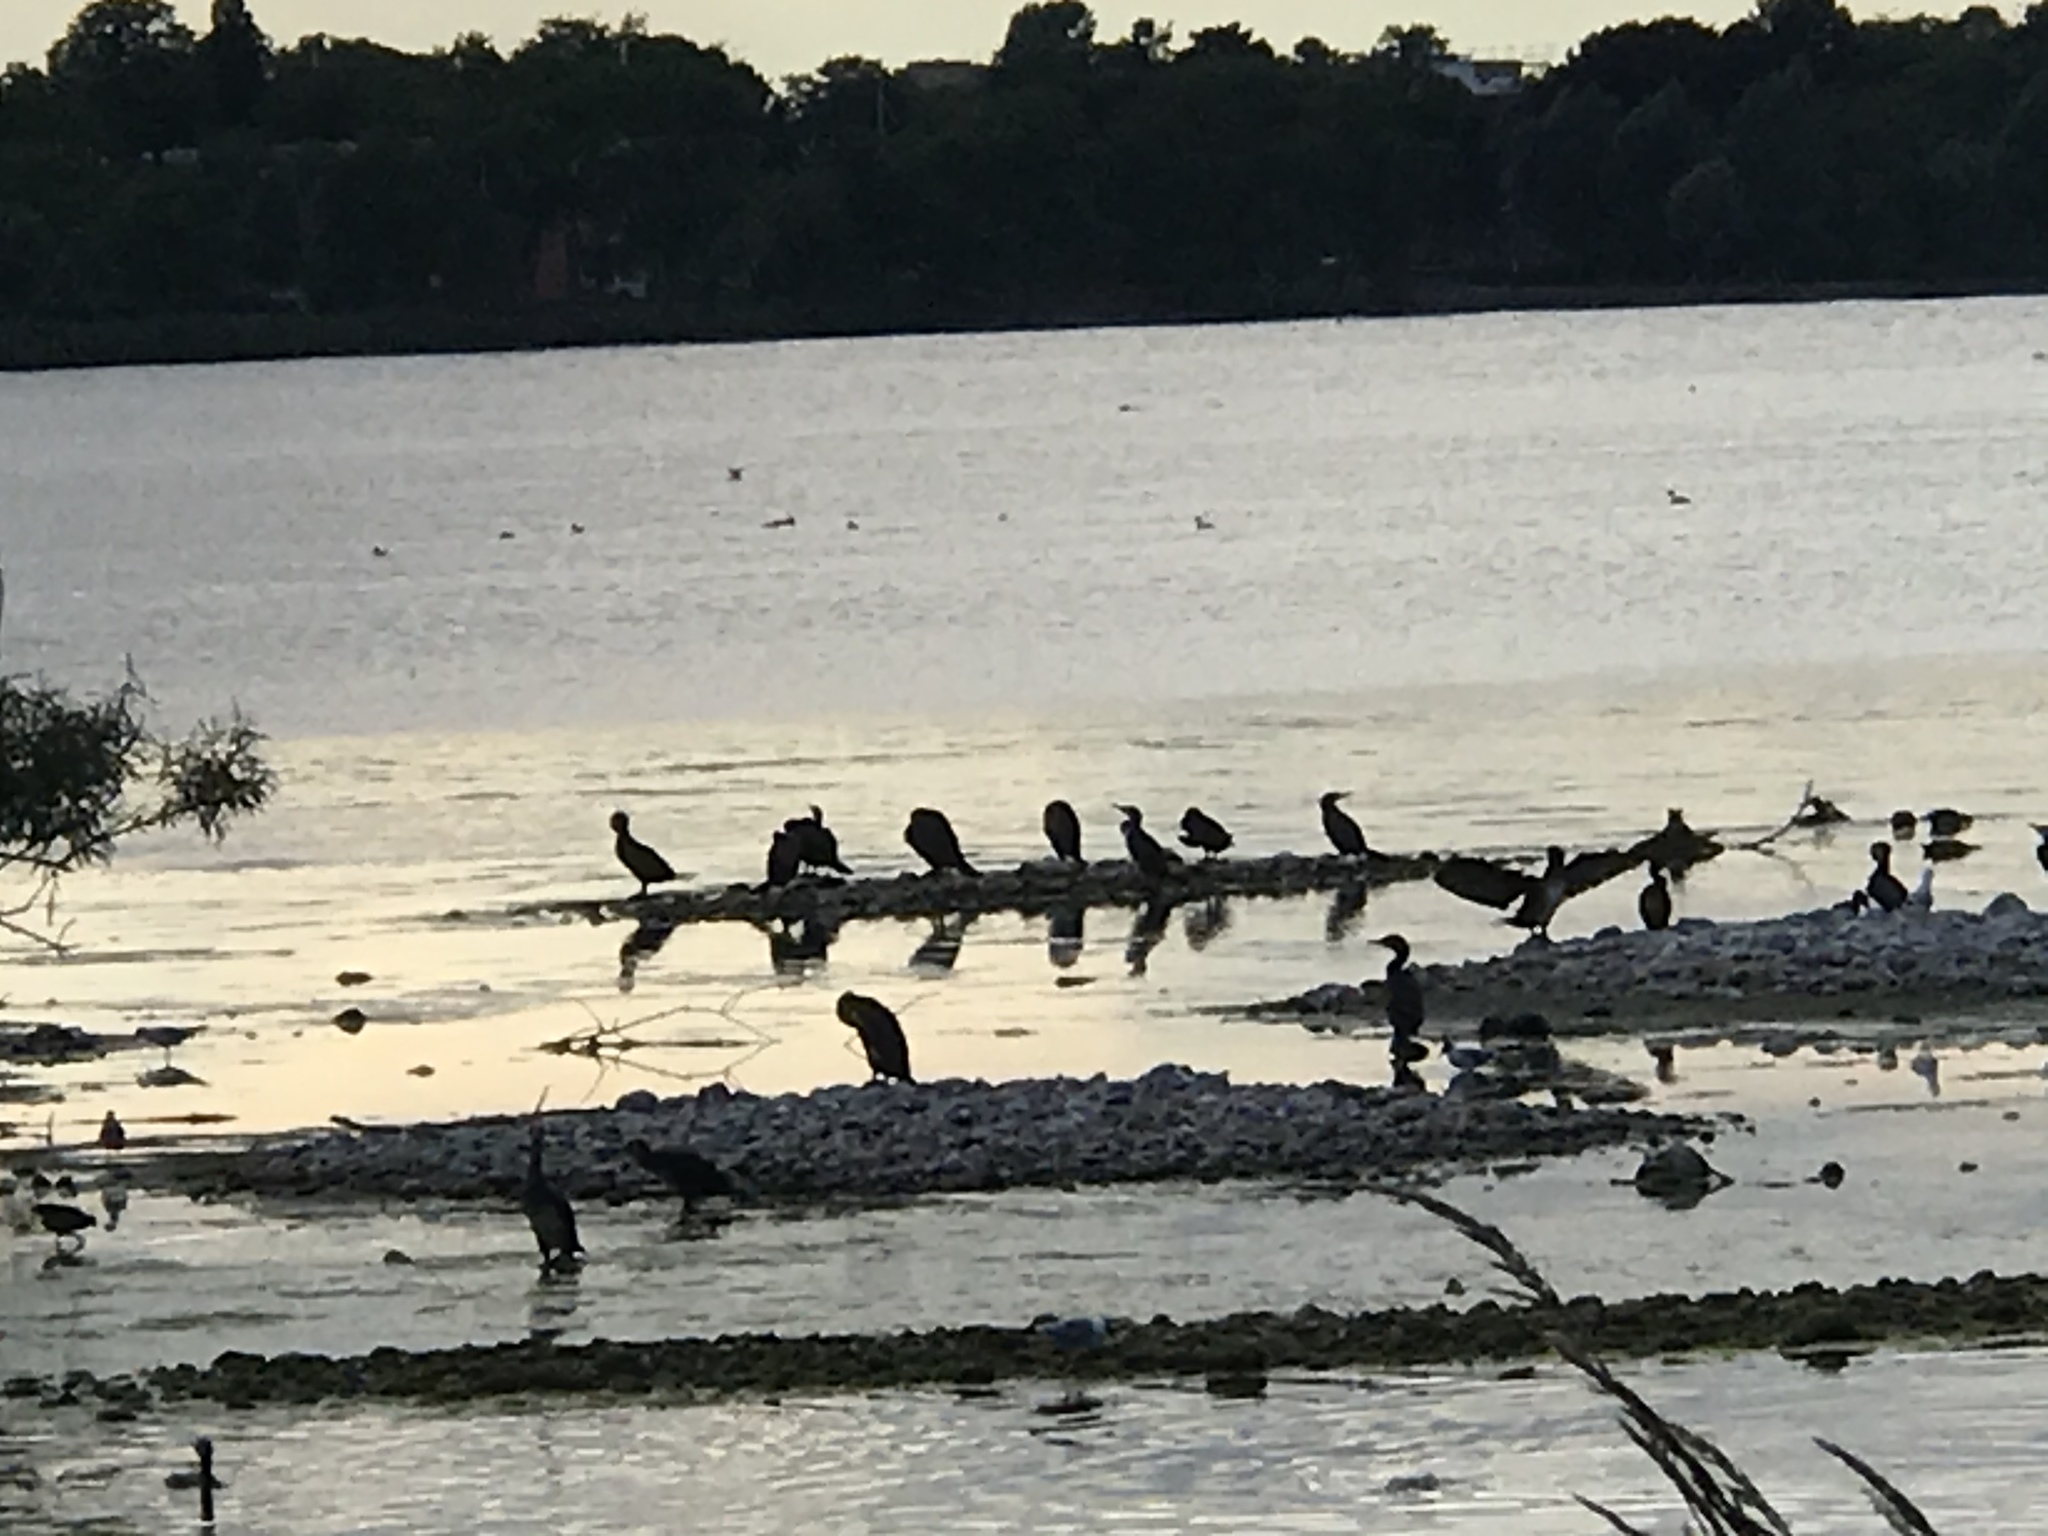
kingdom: Animalia
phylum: Chordata
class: Aves
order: Suliformes
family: Phalacrocoracidae
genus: Phalacrocorax
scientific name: Phalacrocorax carbo
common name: Great cormorant
